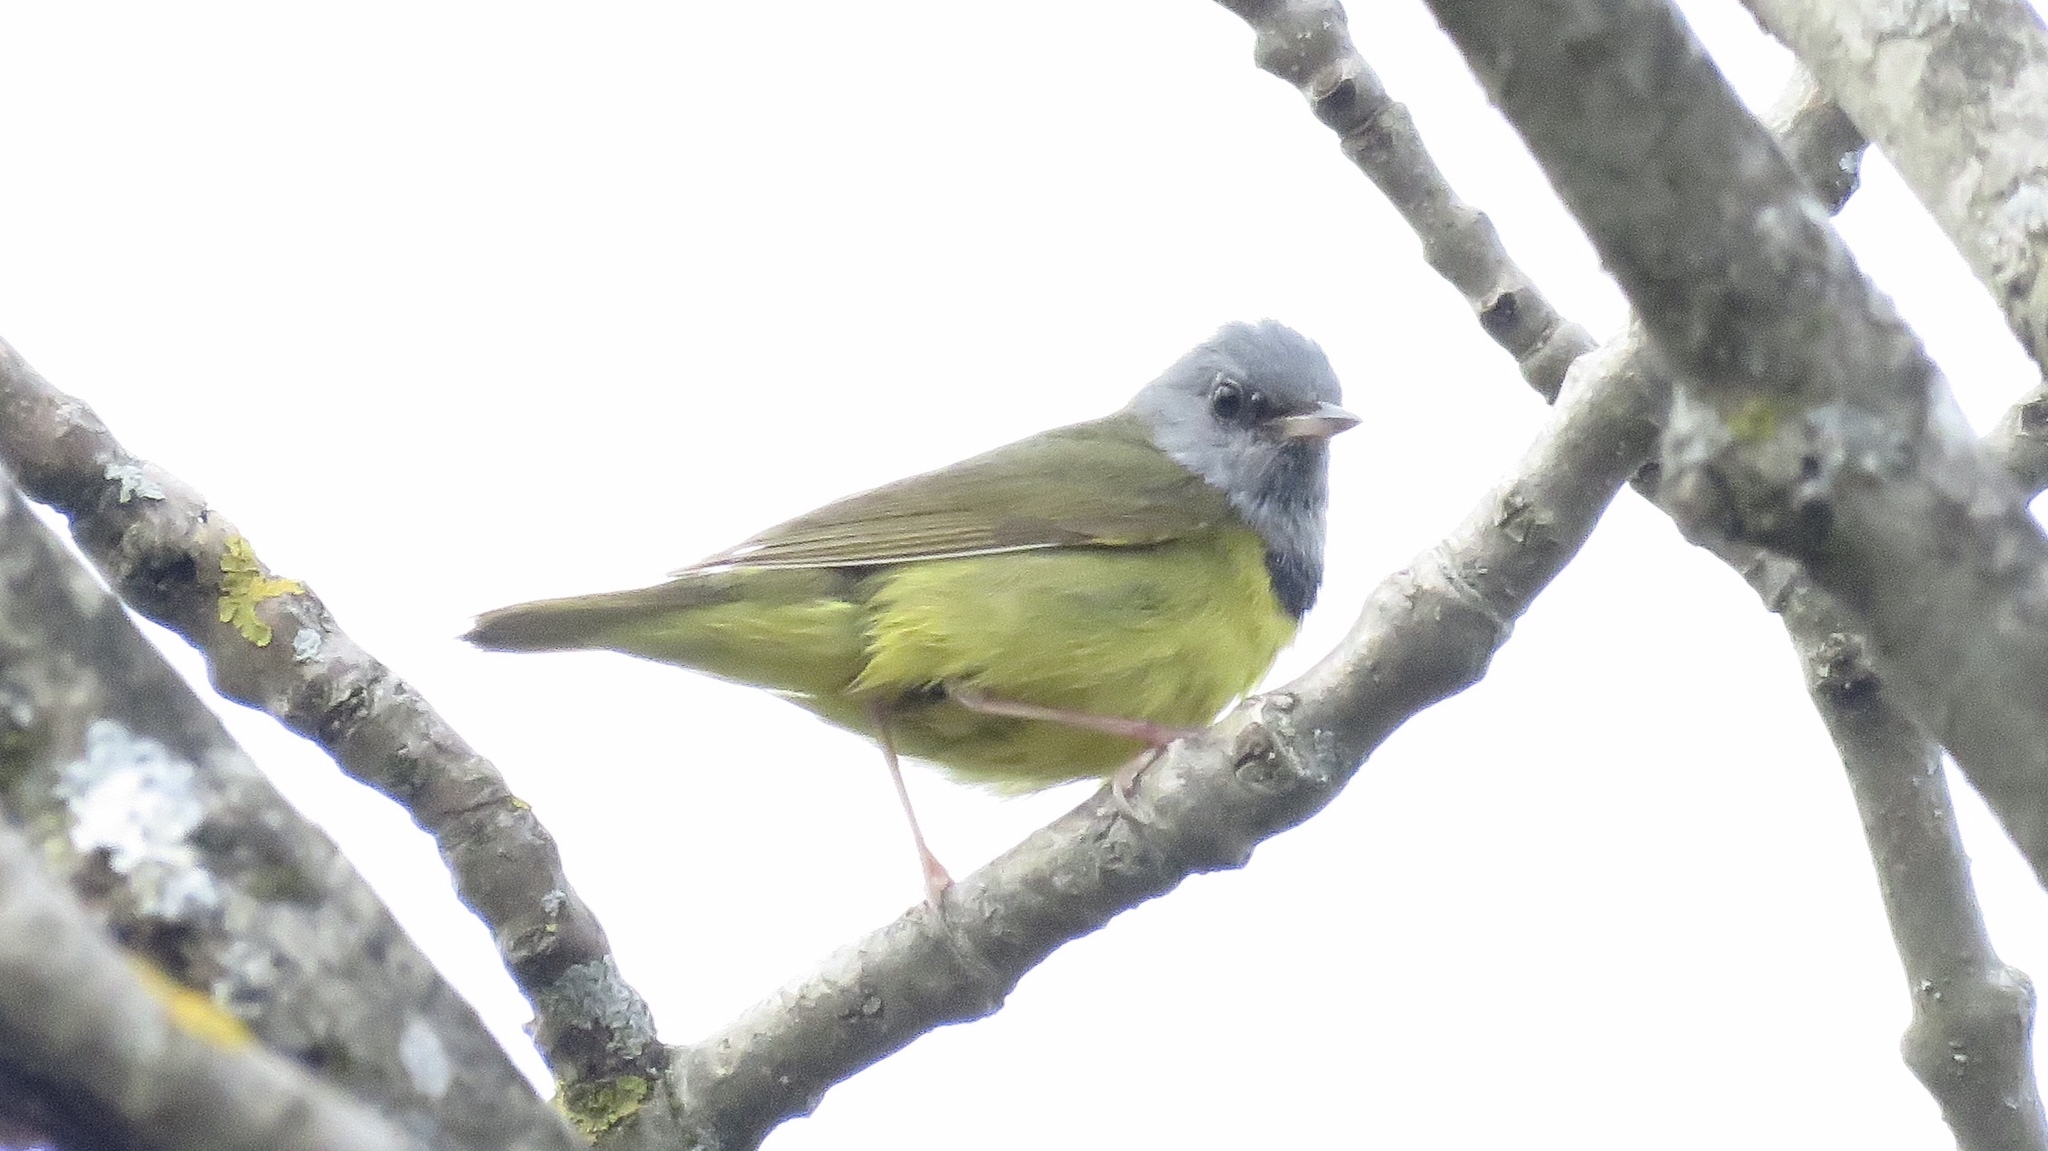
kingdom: Animalia
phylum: Chordata
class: Aves
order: Passeriformes
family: Parulidae
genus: Geothlypis
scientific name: Geothlypis philadelphia
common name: Mourning warbler
